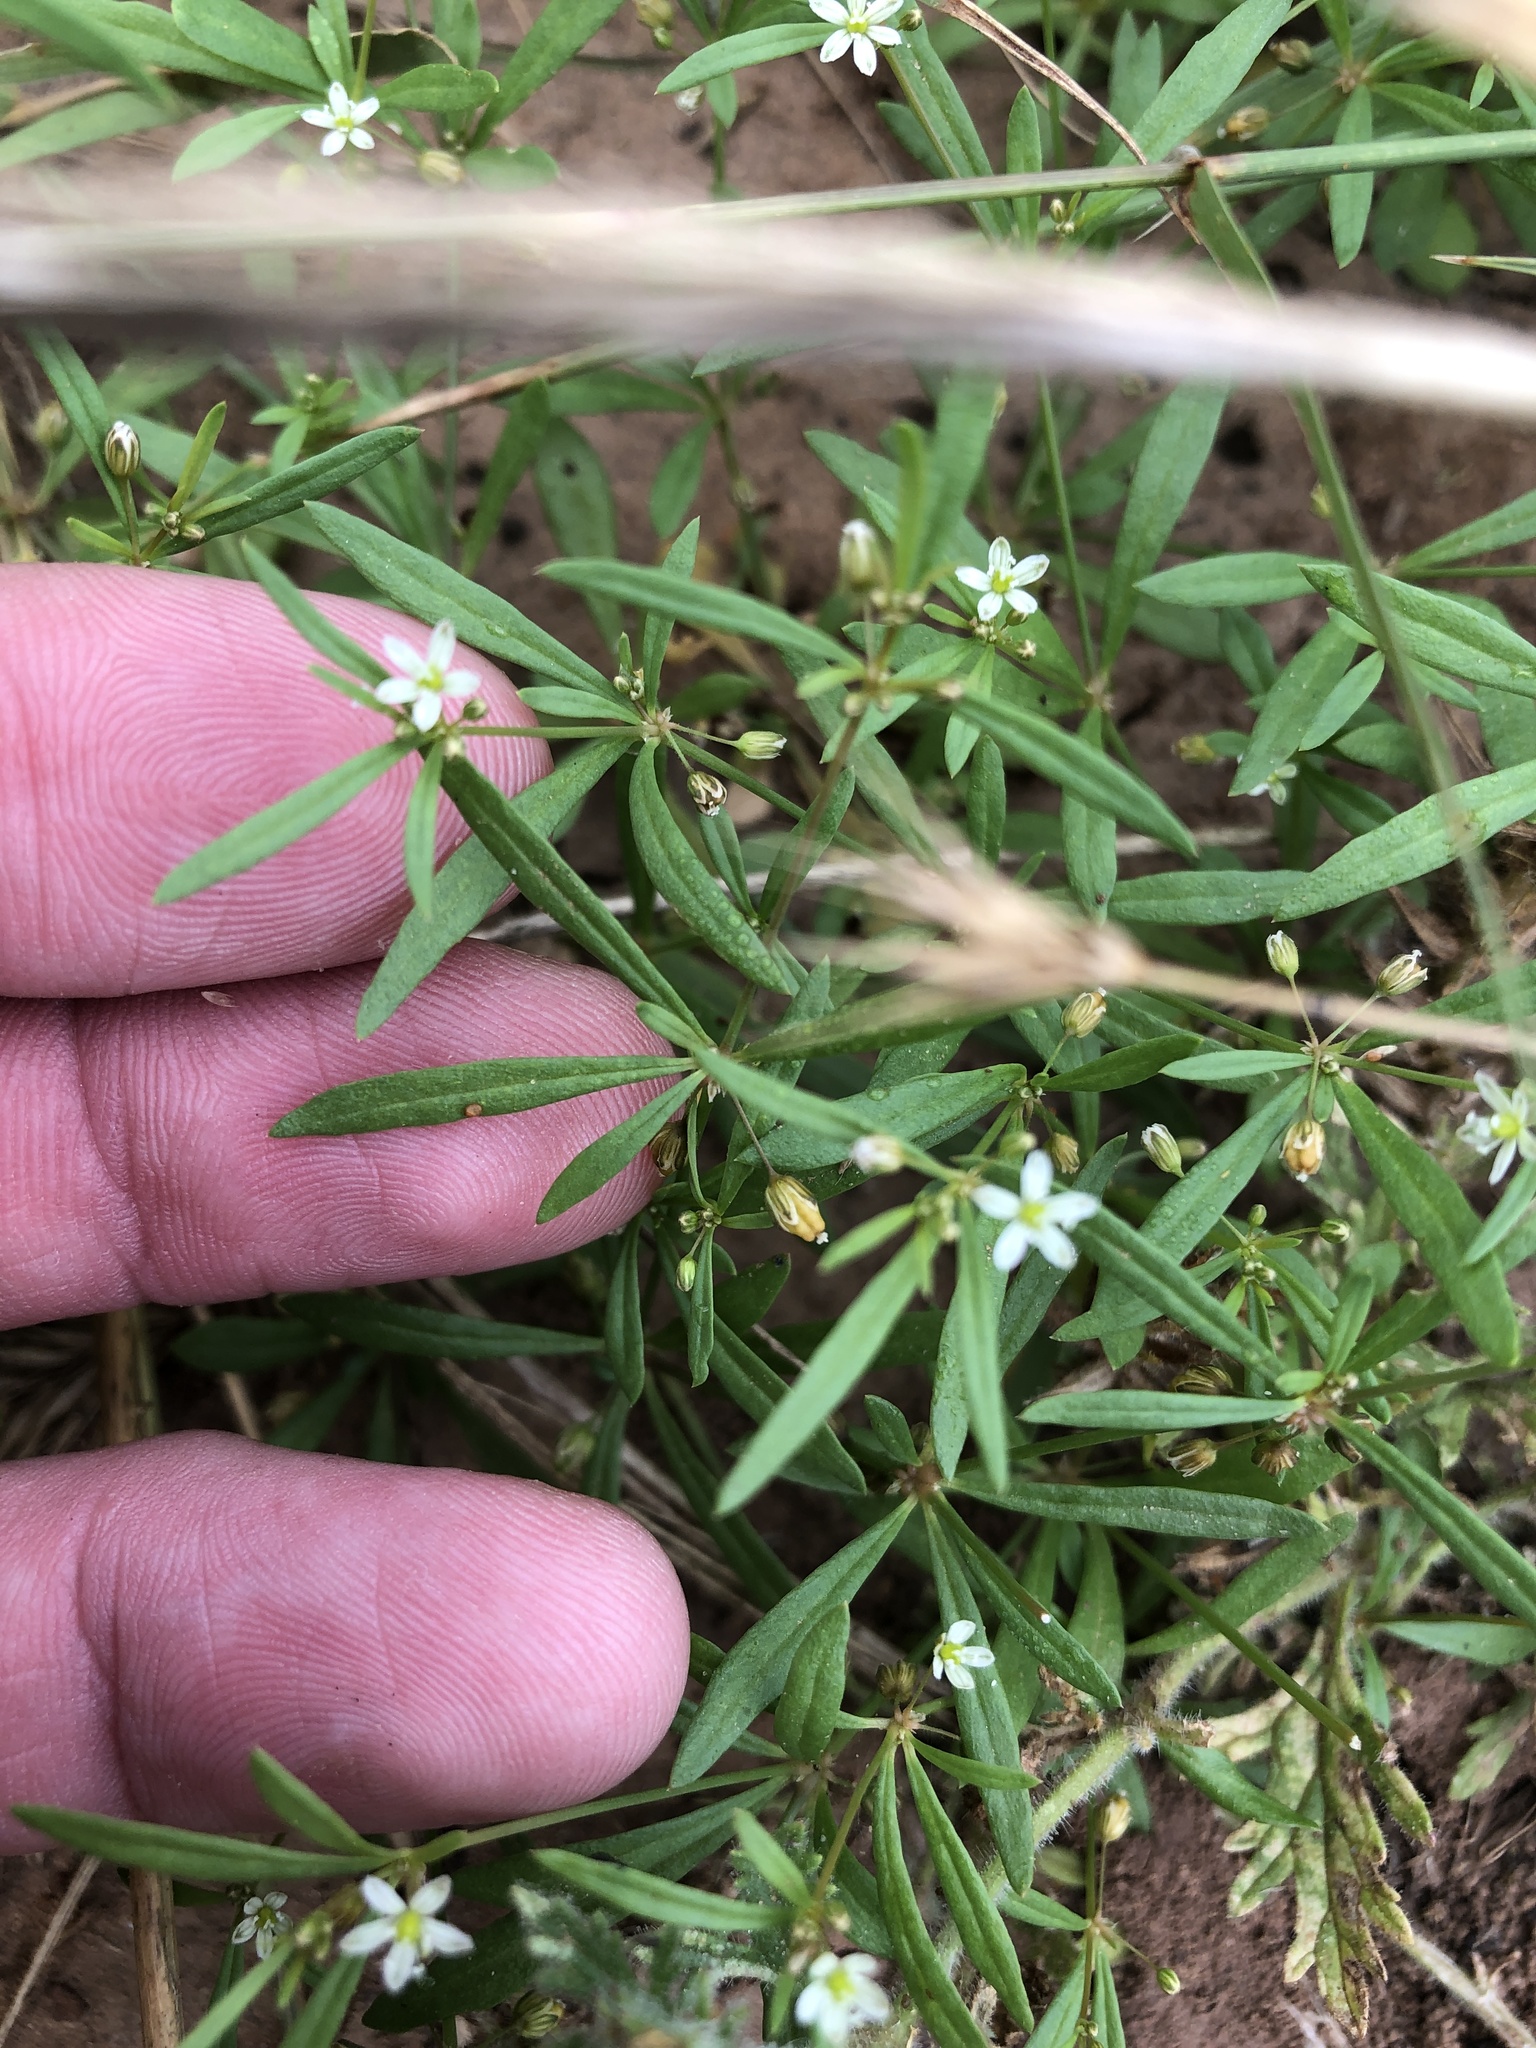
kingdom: Plantae
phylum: Tracheophyta
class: Magnoliopsida
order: Caryophyllales
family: Molluginaceae
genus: Mollugo
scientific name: Mollugo verticillata
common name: Green carpetweed
